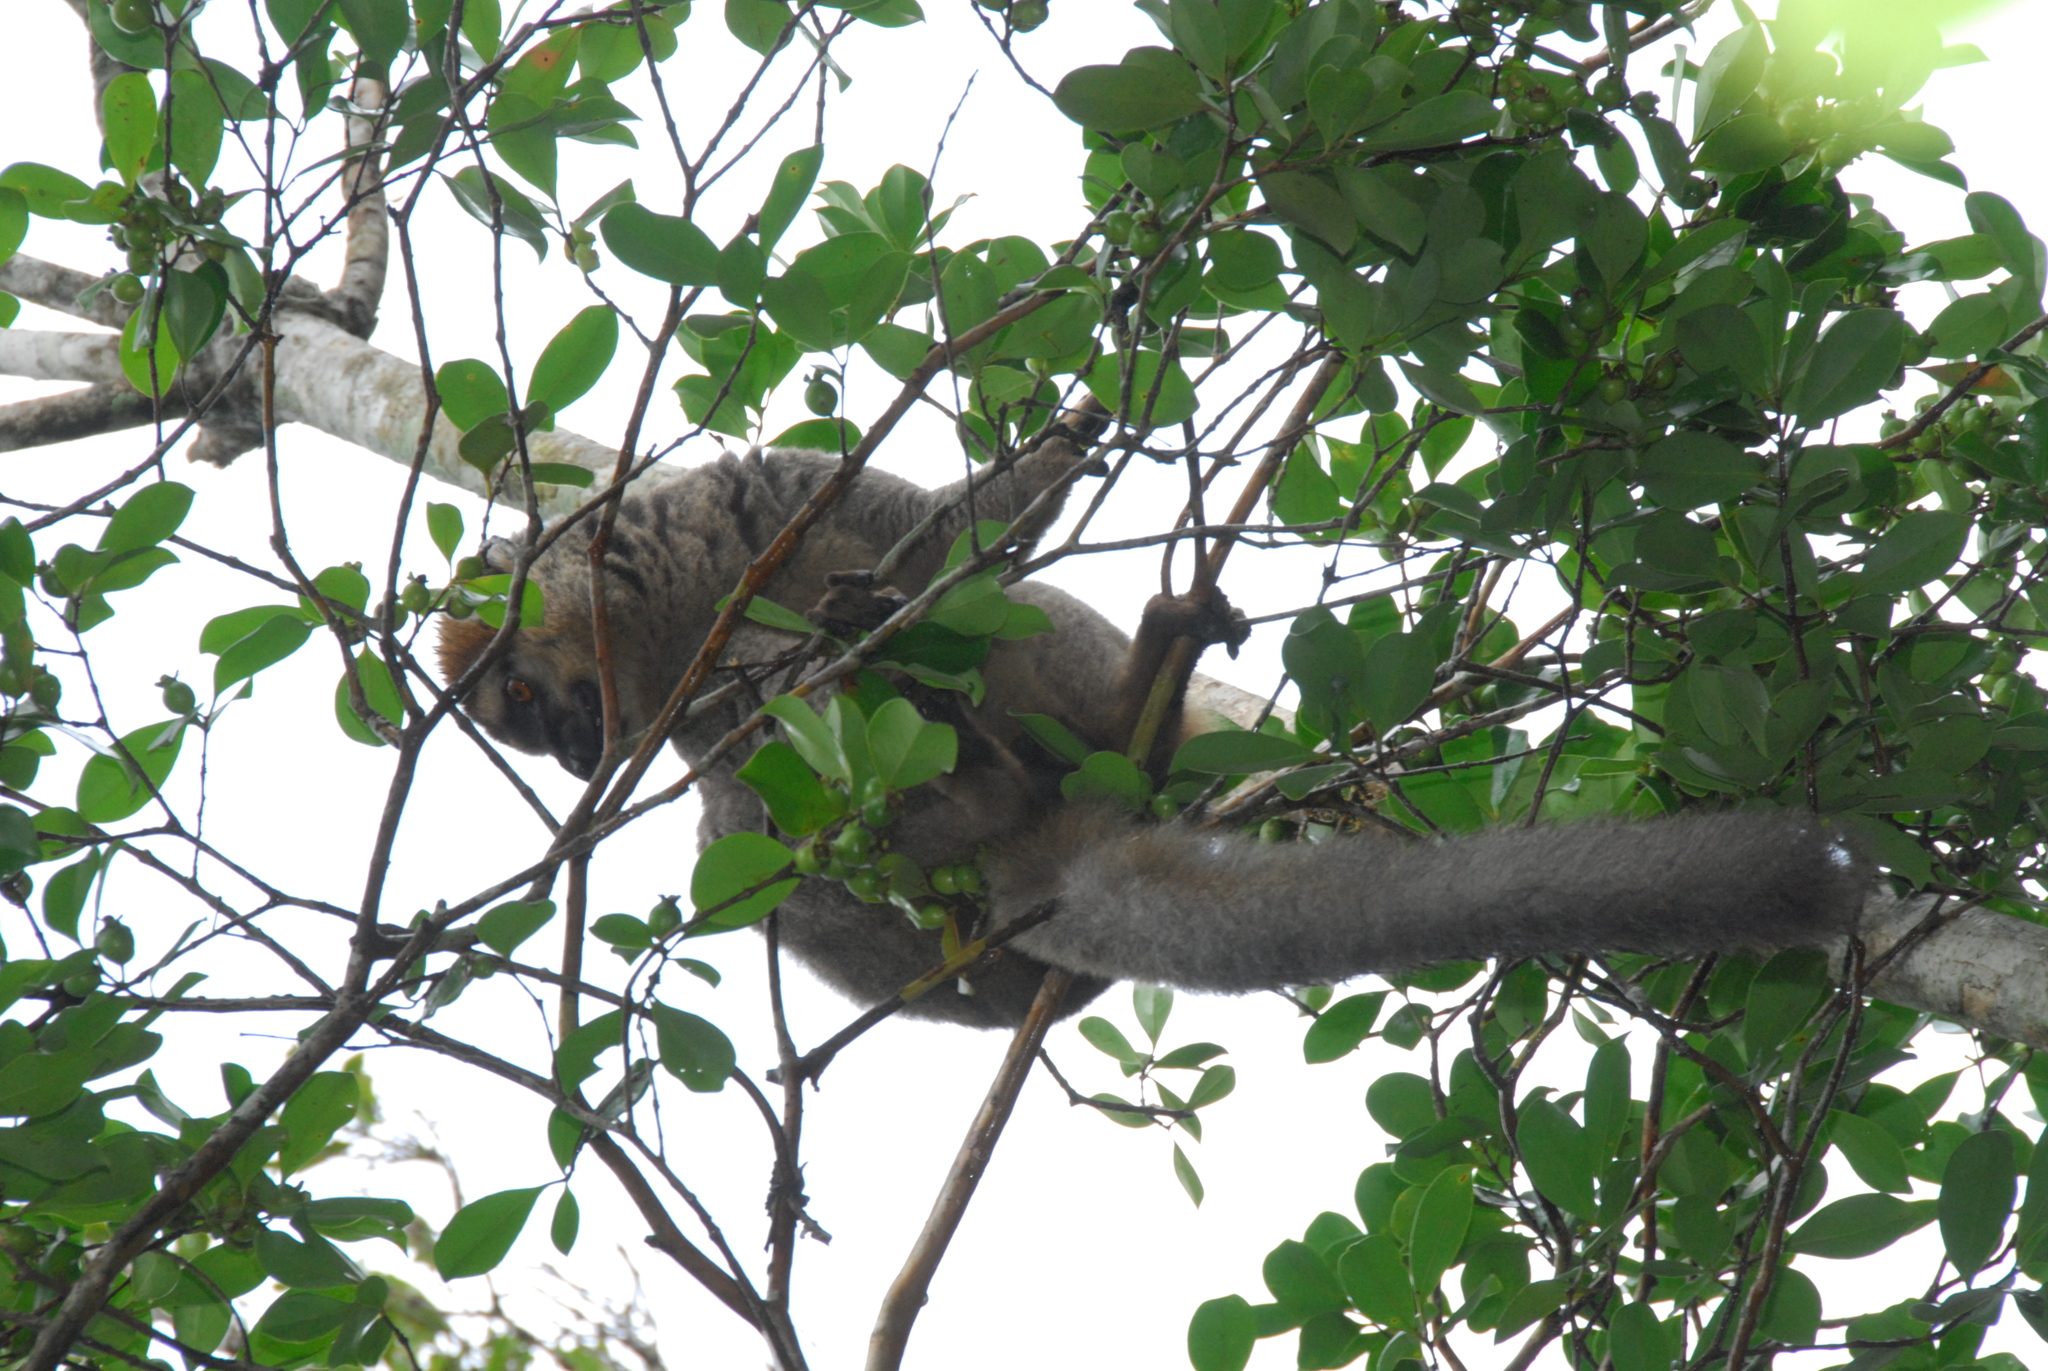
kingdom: Animalia
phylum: Chordata
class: Mammalia
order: Primates
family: Lemuridae
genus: Eulemur
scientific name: Eulemur rufifrons
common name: Red-fronted brown lemur
